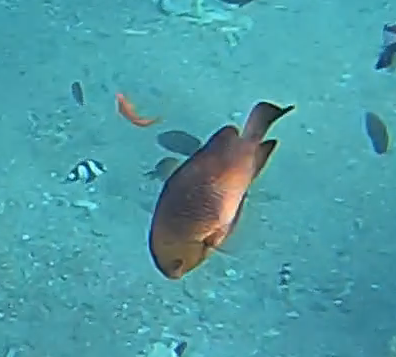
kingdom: Animalia
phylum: Chordata
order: Perciformes
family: Pomacentridae
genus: Dascyllus
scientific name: Dascyllus trimaculatus
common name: Threespot dascyllus
